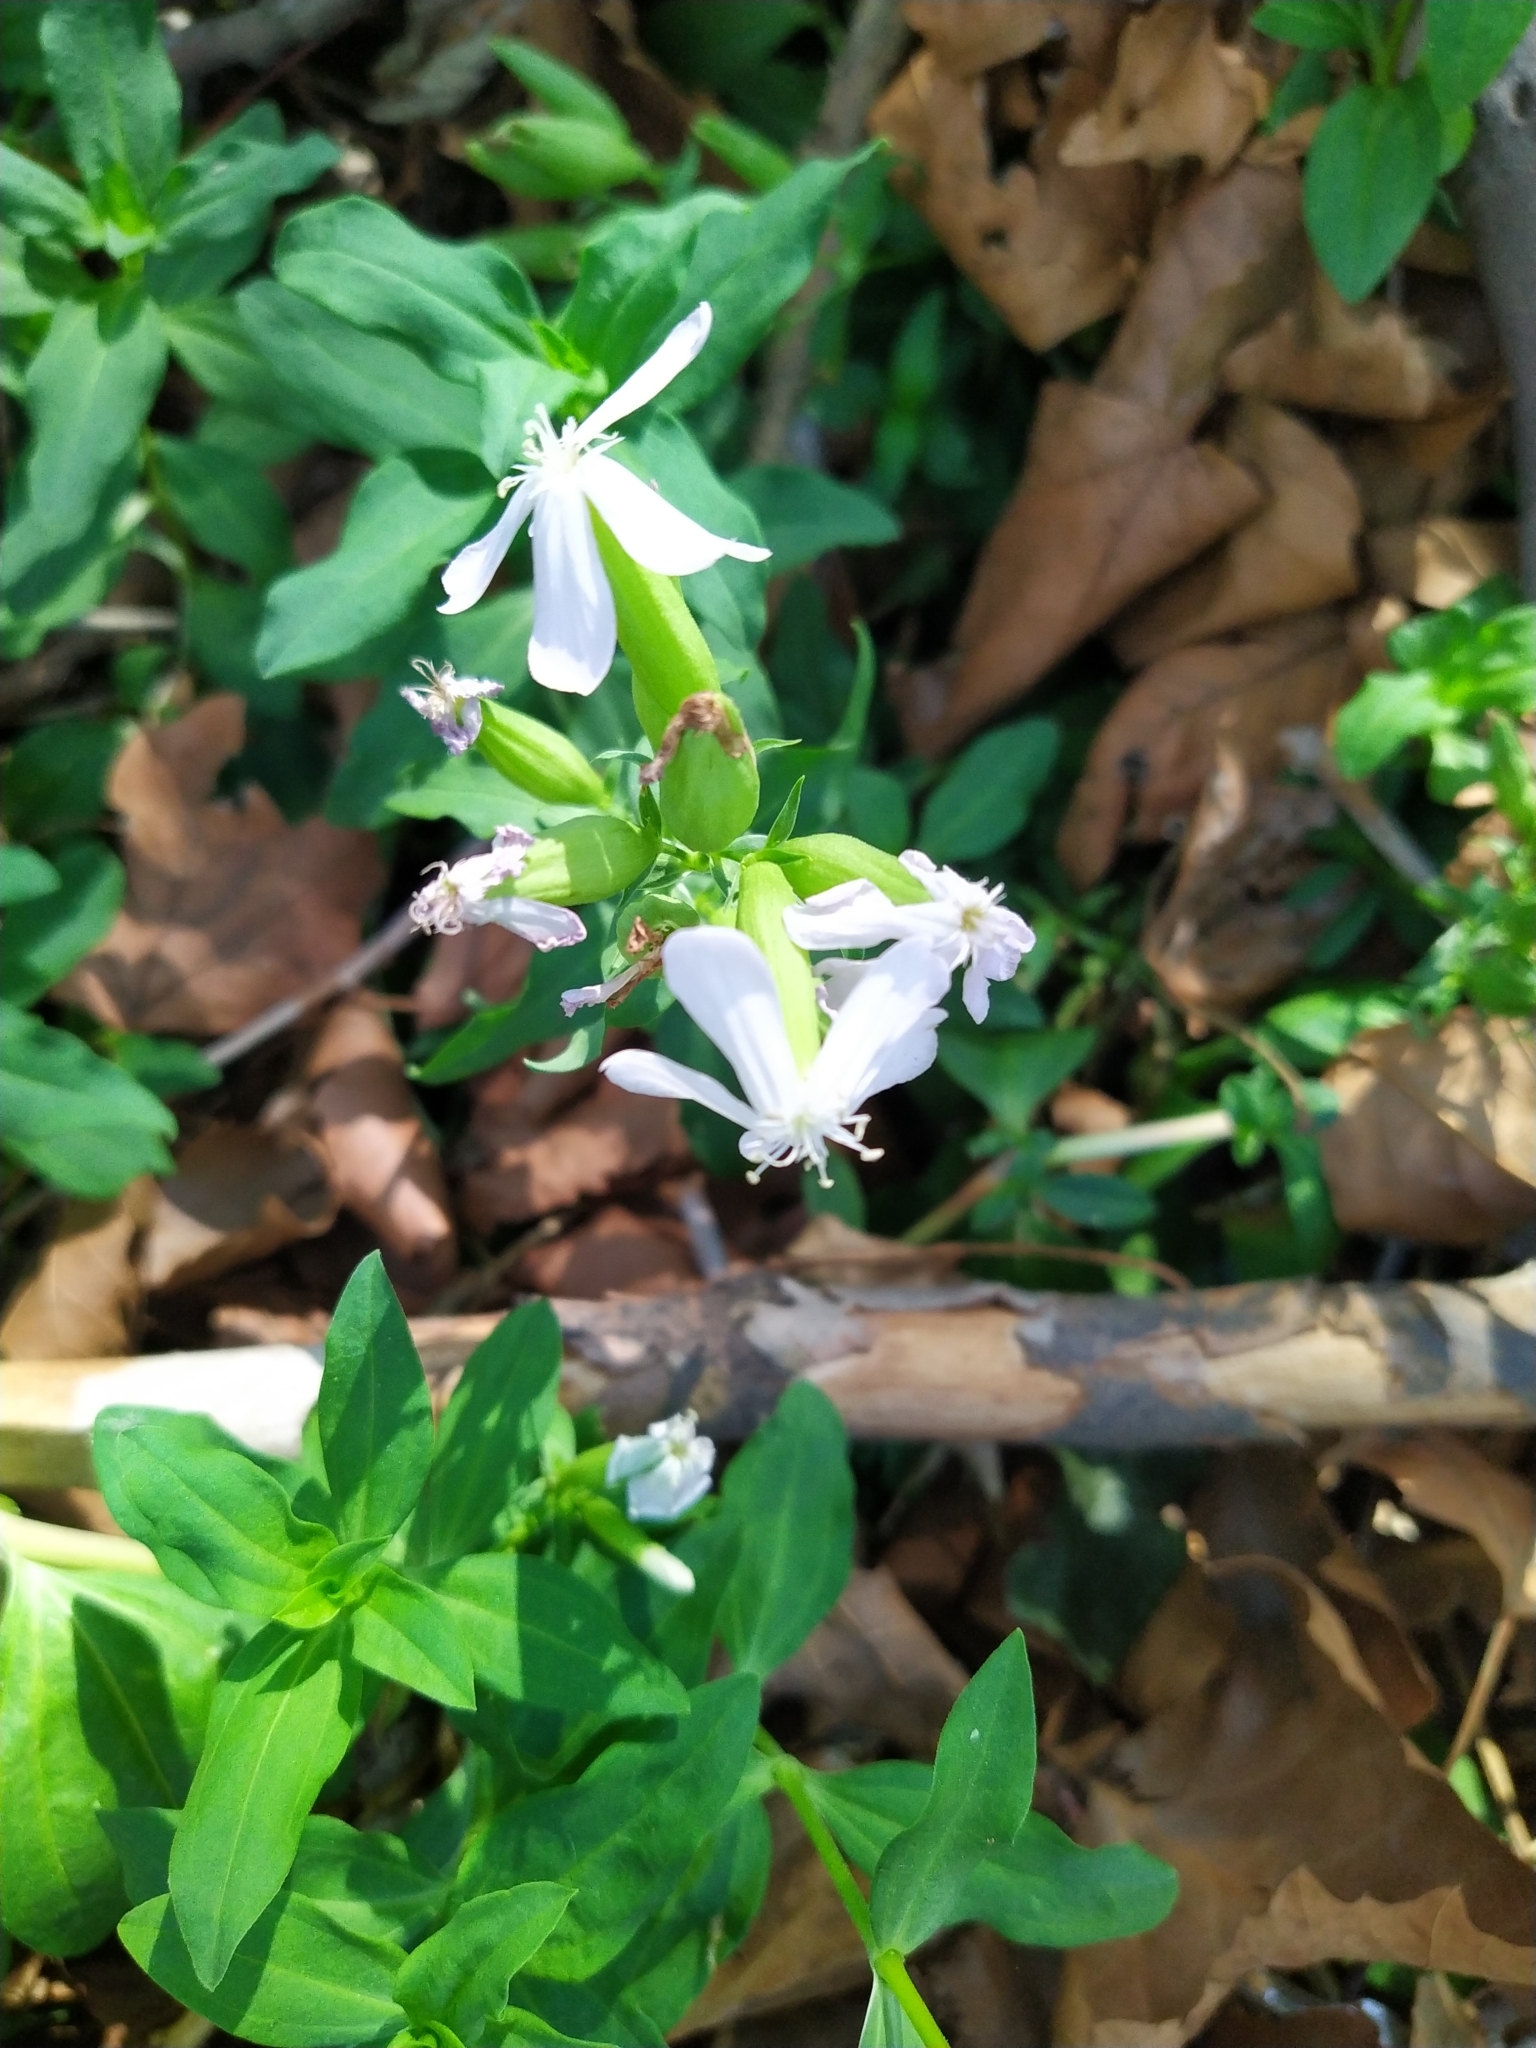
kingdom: Plantae
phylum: Tracheophyta
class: Magnoliopsida
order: Caryophyllales
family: Caryophyllaceae
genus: Saponaria
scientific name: Saponaria officinalis
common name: Soapwort
